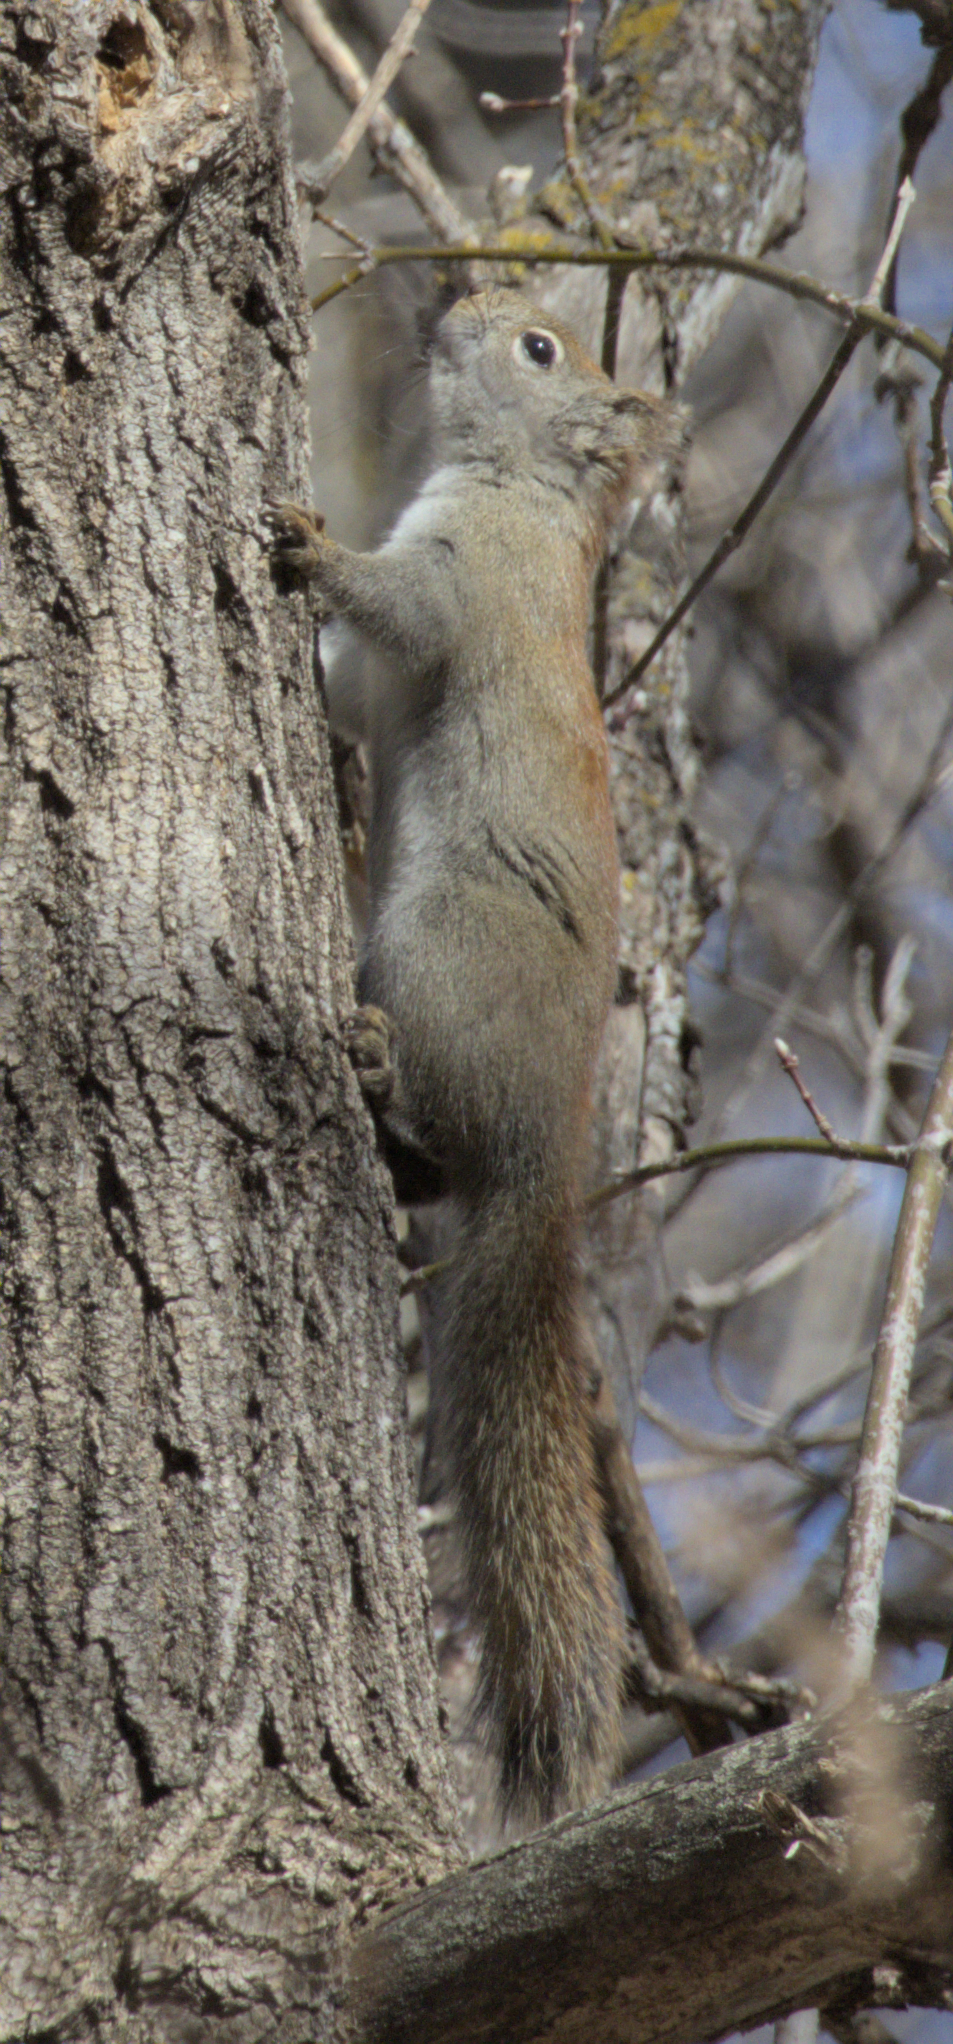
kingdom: Animalia
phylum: Chordata
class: Mammalia
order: Rodentia
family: Sciuridae
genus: Tamiasciurus
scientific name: Tamiasciurus hudsonicus
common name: Red squirrel
